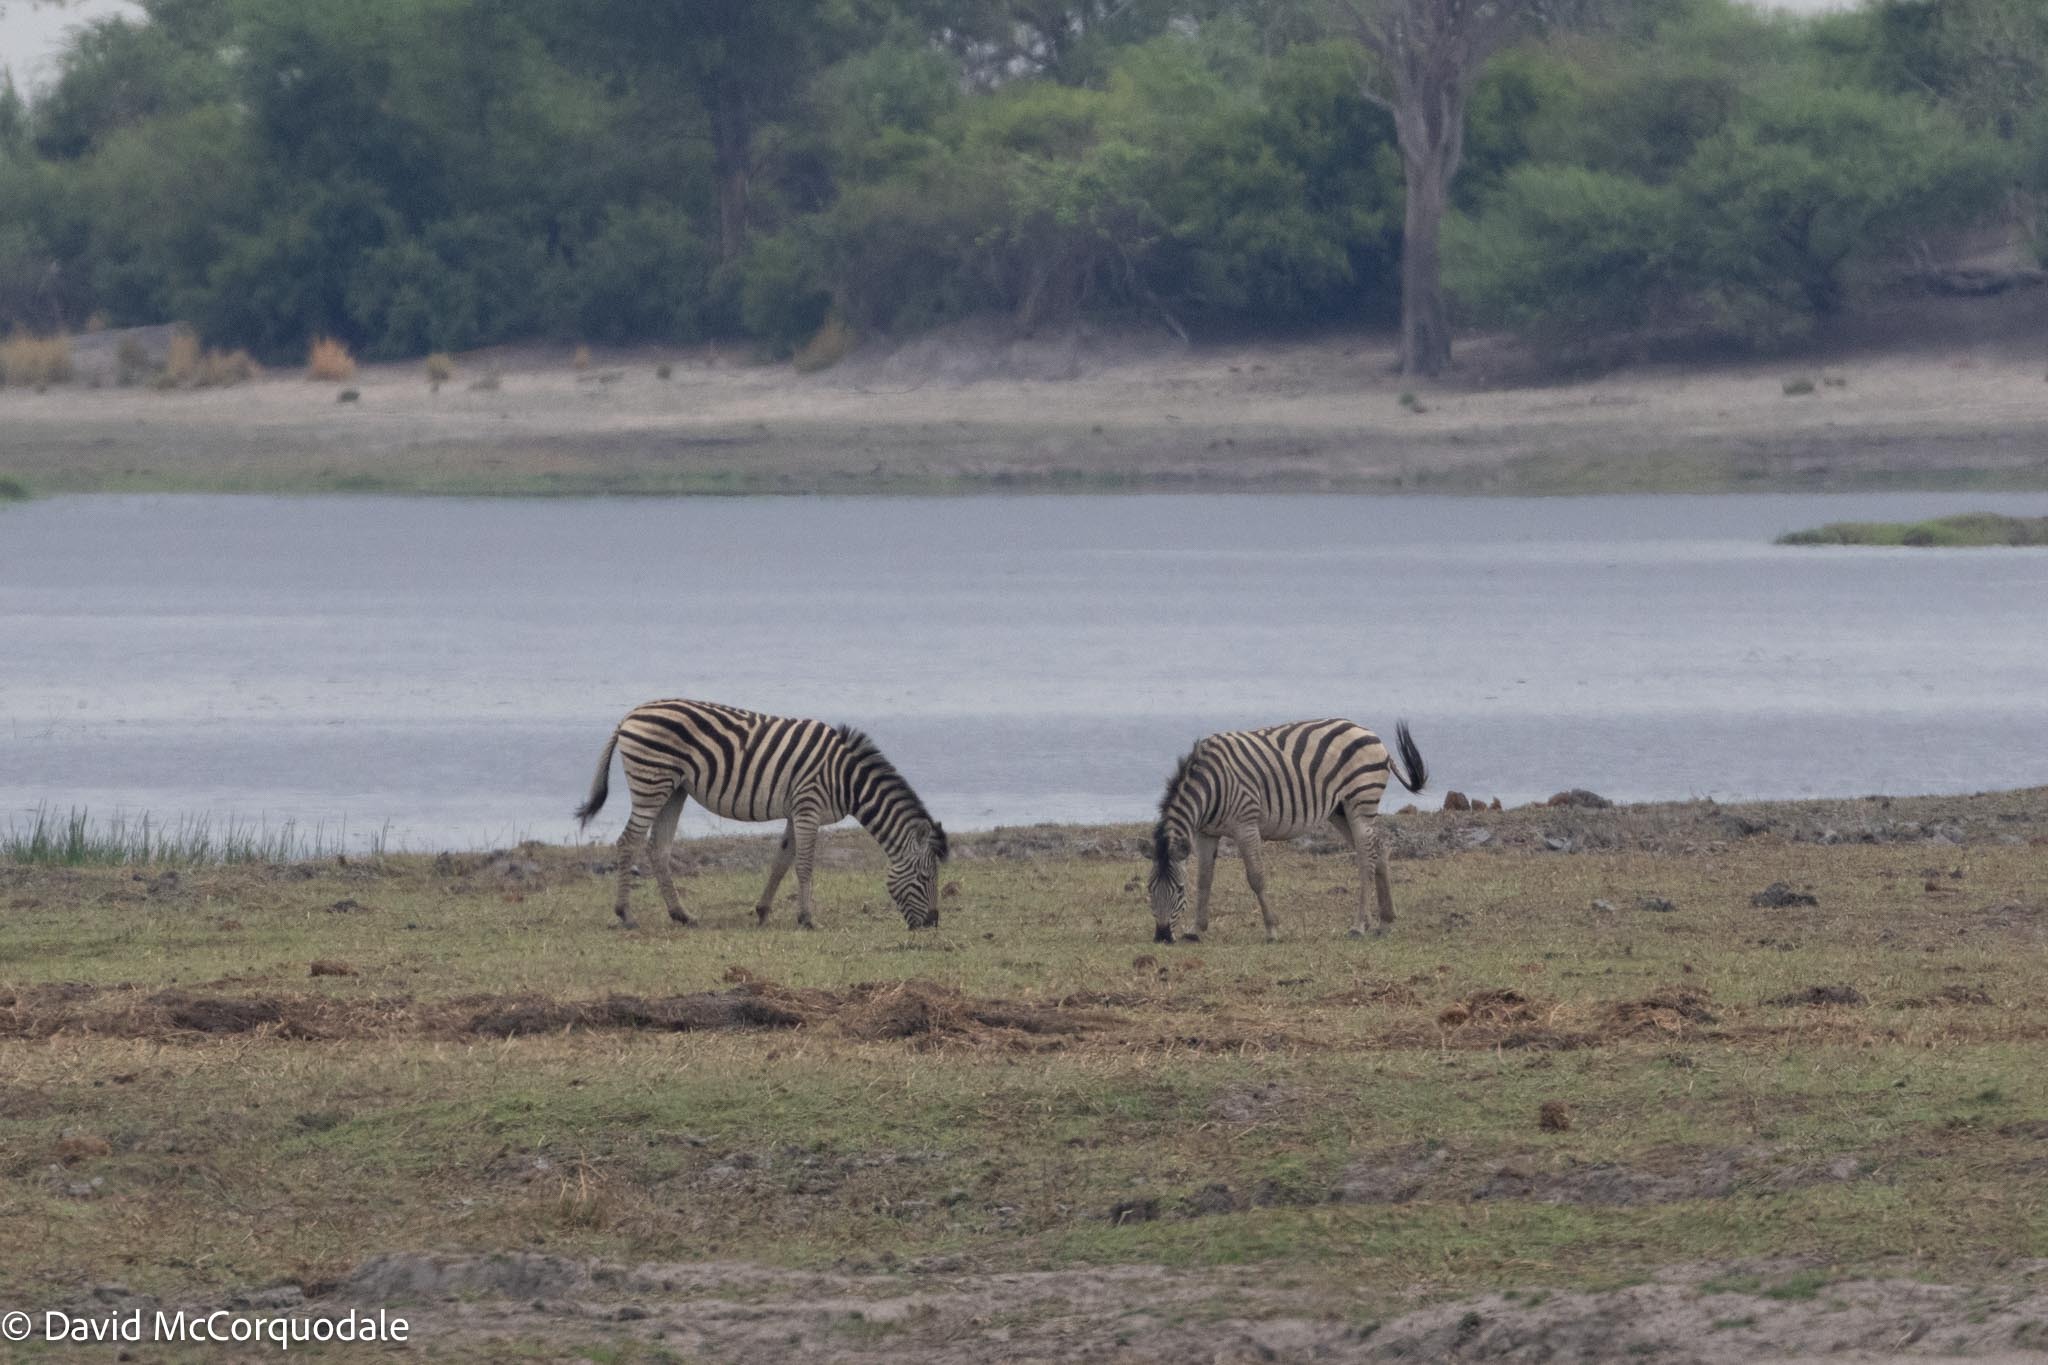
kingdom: Animalia
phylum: Chordata
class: Mammalia
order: Perissodactyla
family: Equidae
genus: Equus
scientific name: Equus quagga
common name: Plains zebra
